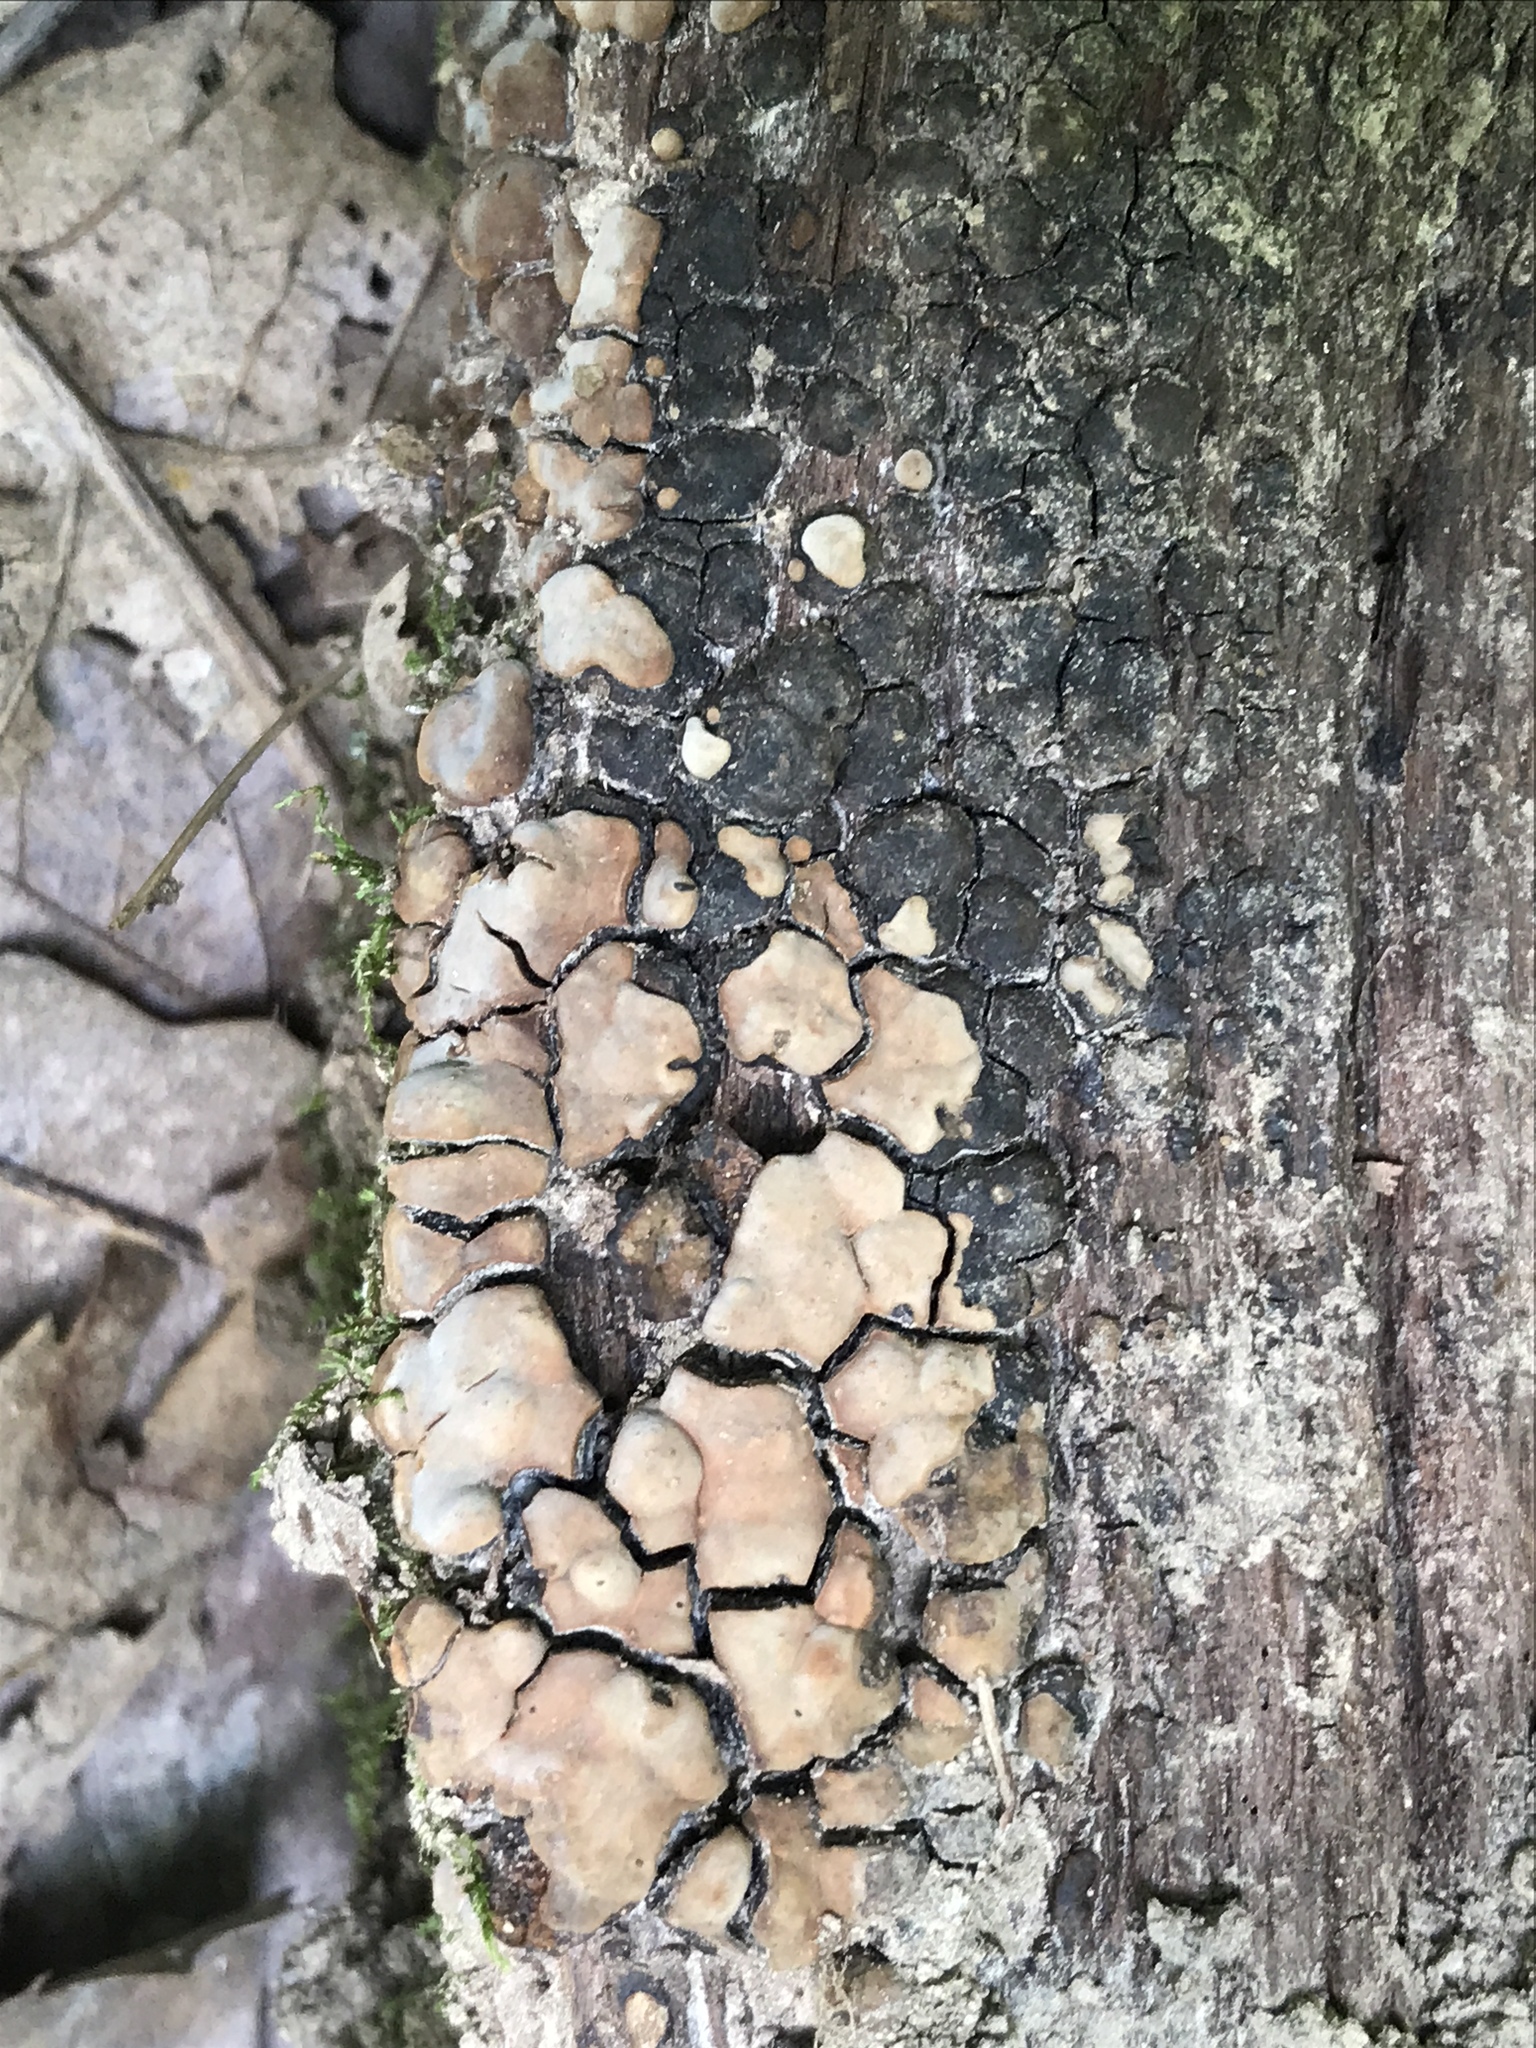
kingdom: Fungi
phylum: Basidiomycota
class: Agaricomycetes
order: Russulales
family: Stereaceae
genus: Xylobolus
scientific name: Xylobolus frustulatus
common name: Ceramic parchment
